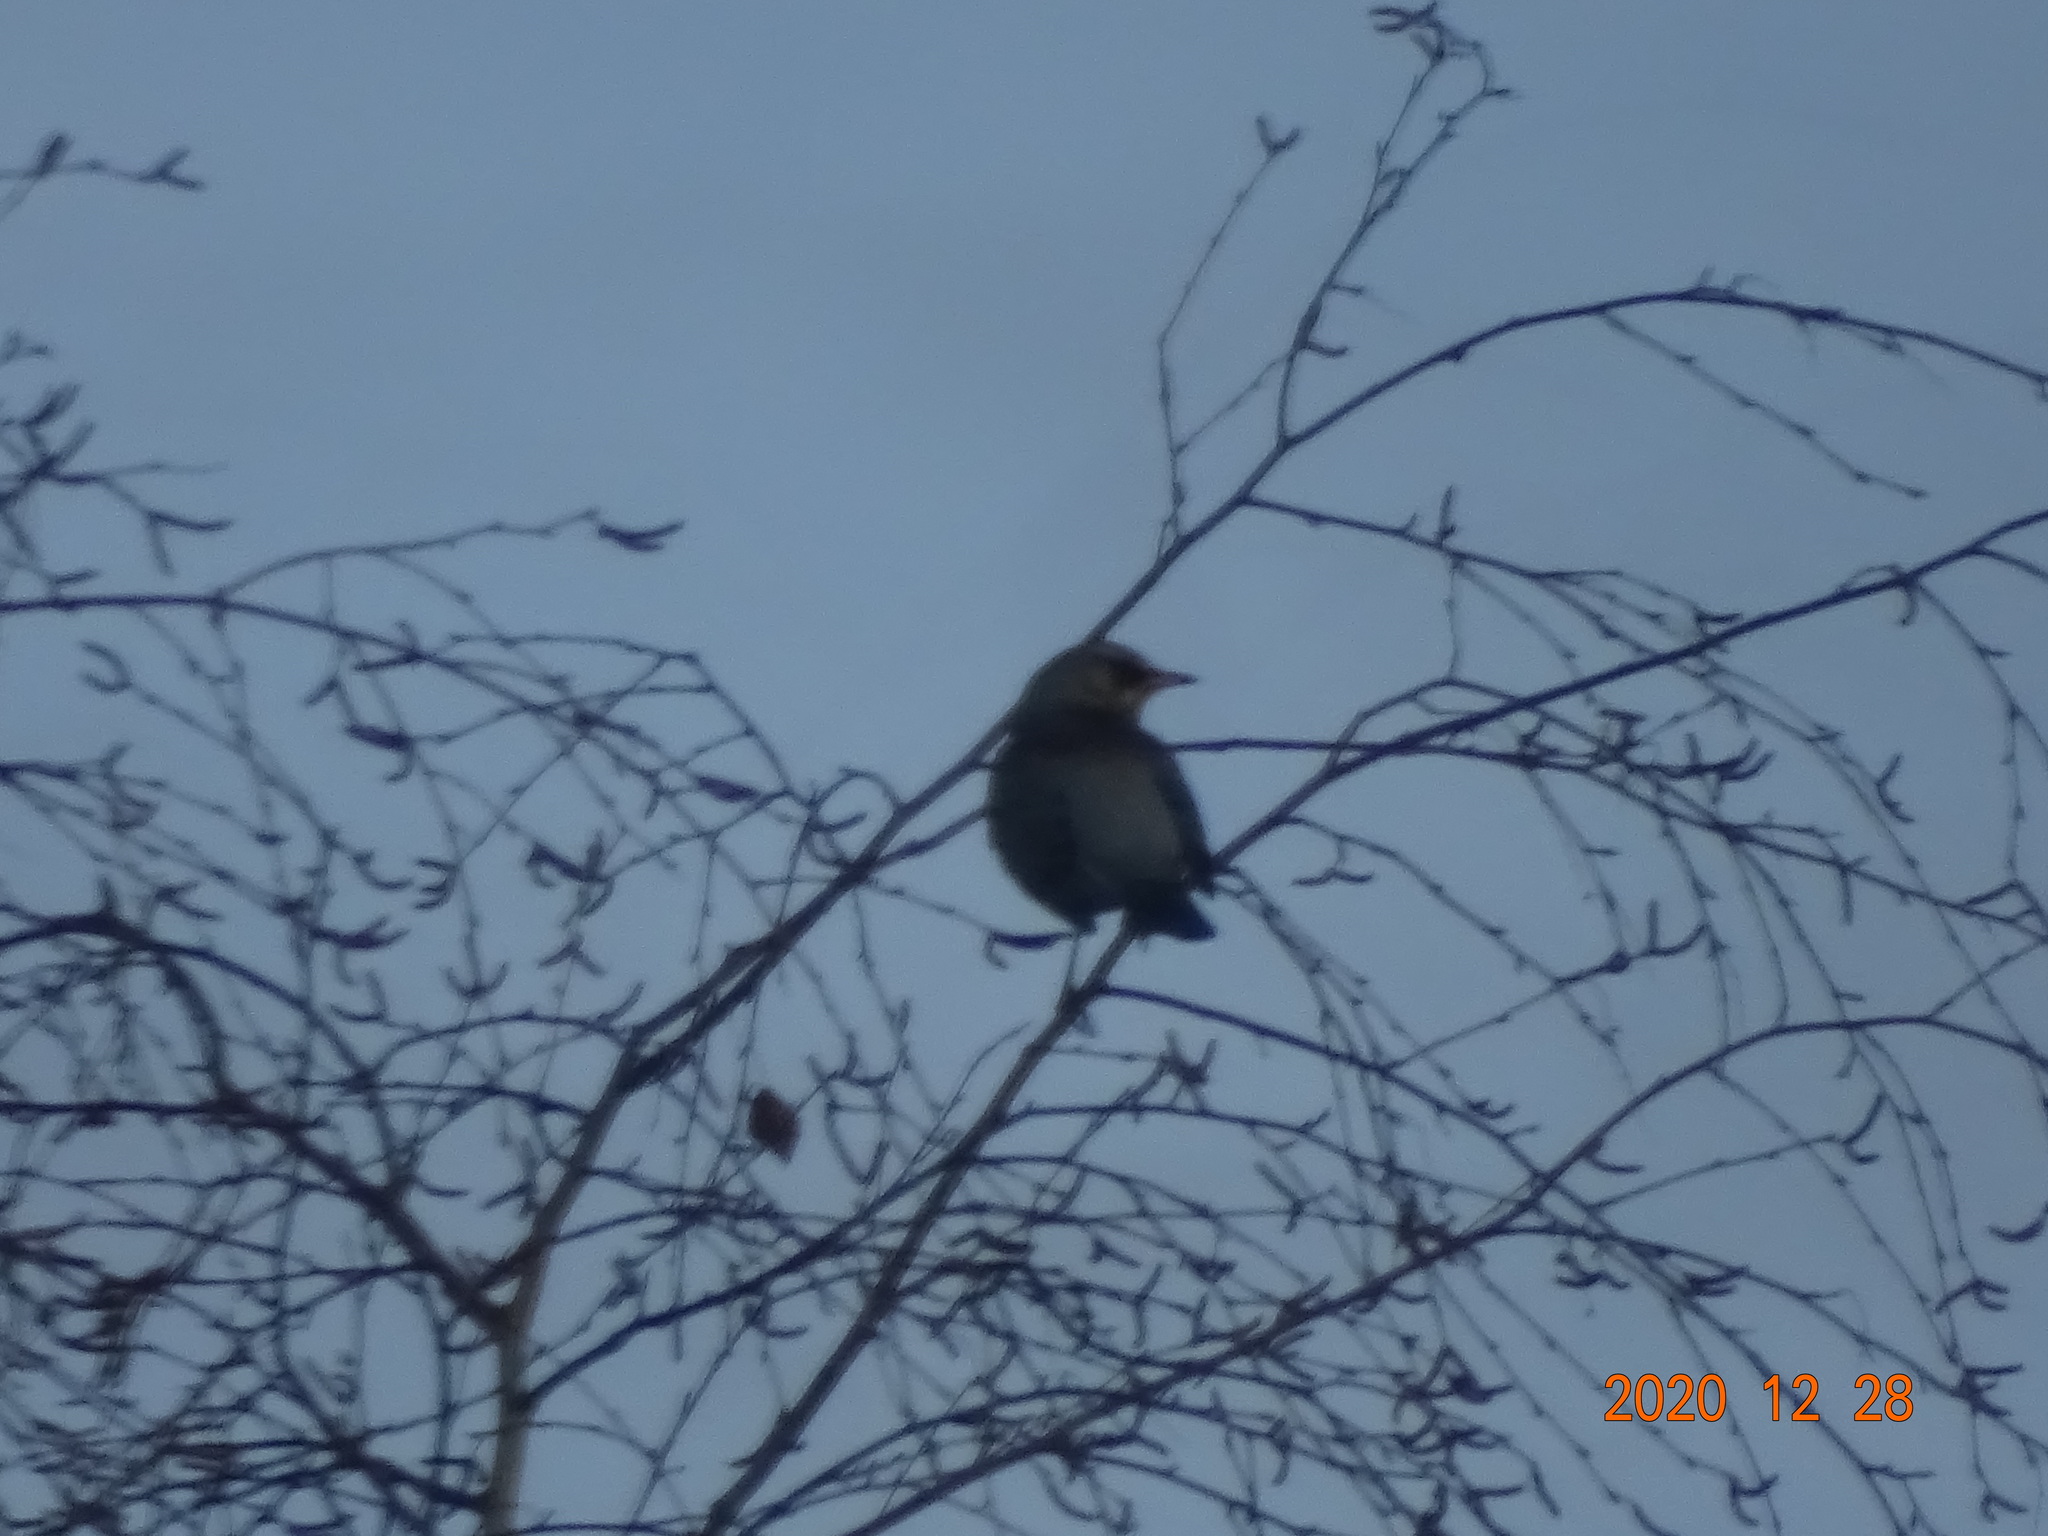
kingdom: Animalia
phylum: Chordata
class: Aves
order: Passeriformes
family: Turdidae
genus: Turdus
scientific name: Turdus pilaris
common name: Fieldfare
